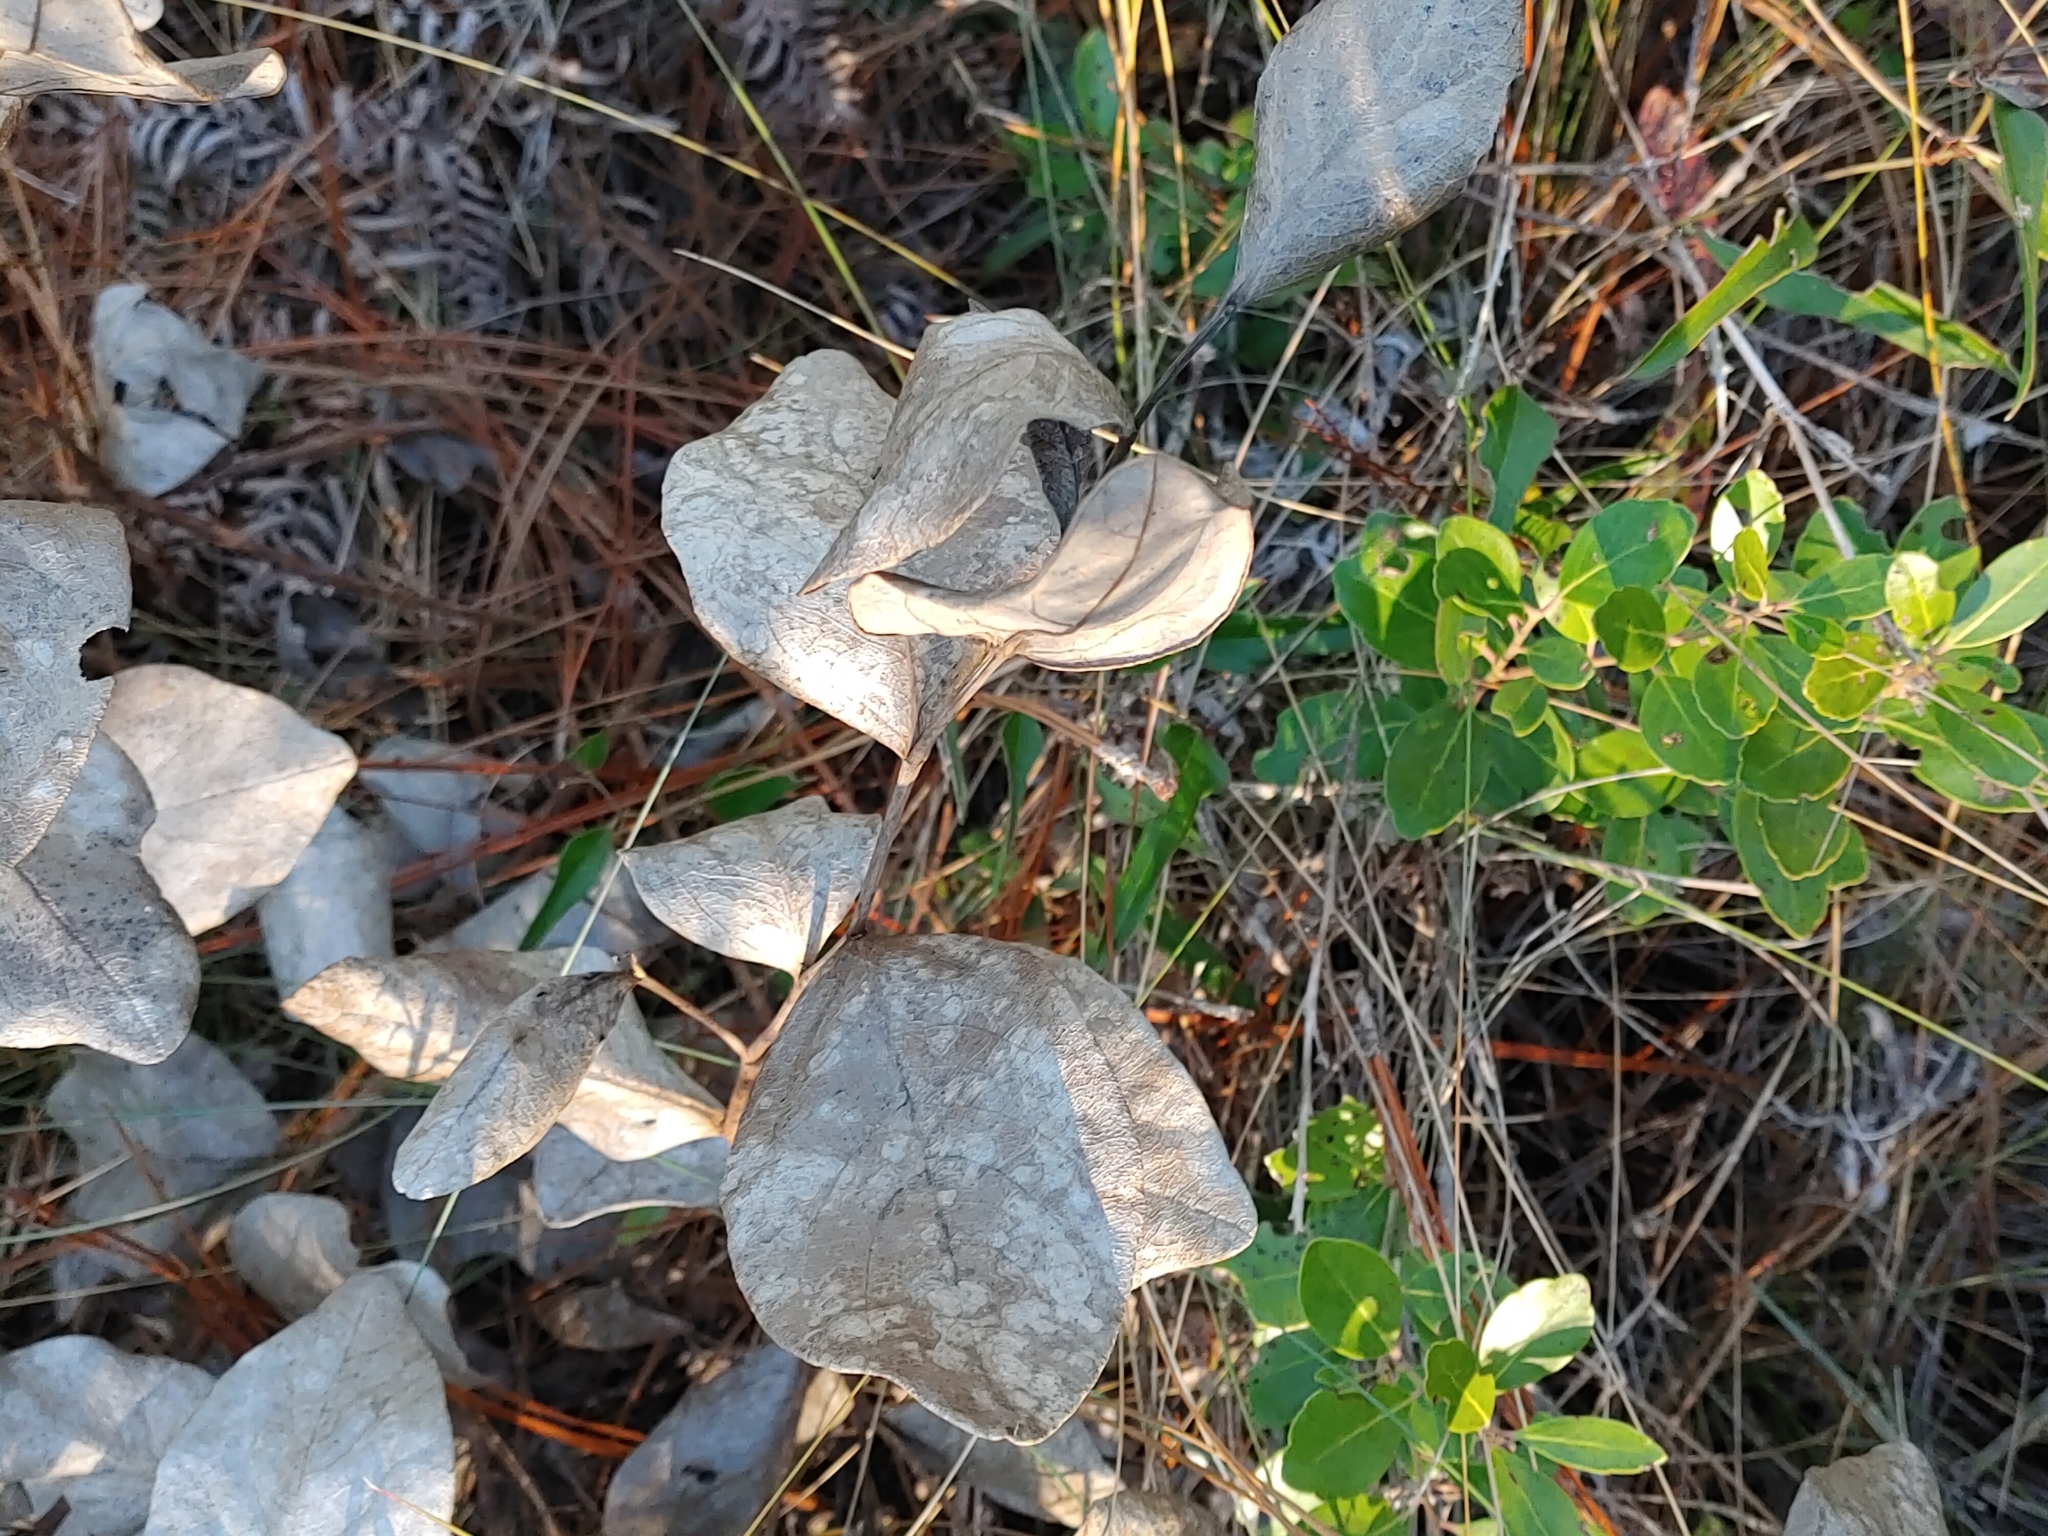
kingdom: Plantae
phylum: Tracheophyta
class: Magnoliopsida
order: Fabales
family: Fabaceae
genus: Baptisia
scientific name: Baptisia simplicifolia
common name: Scareweed
